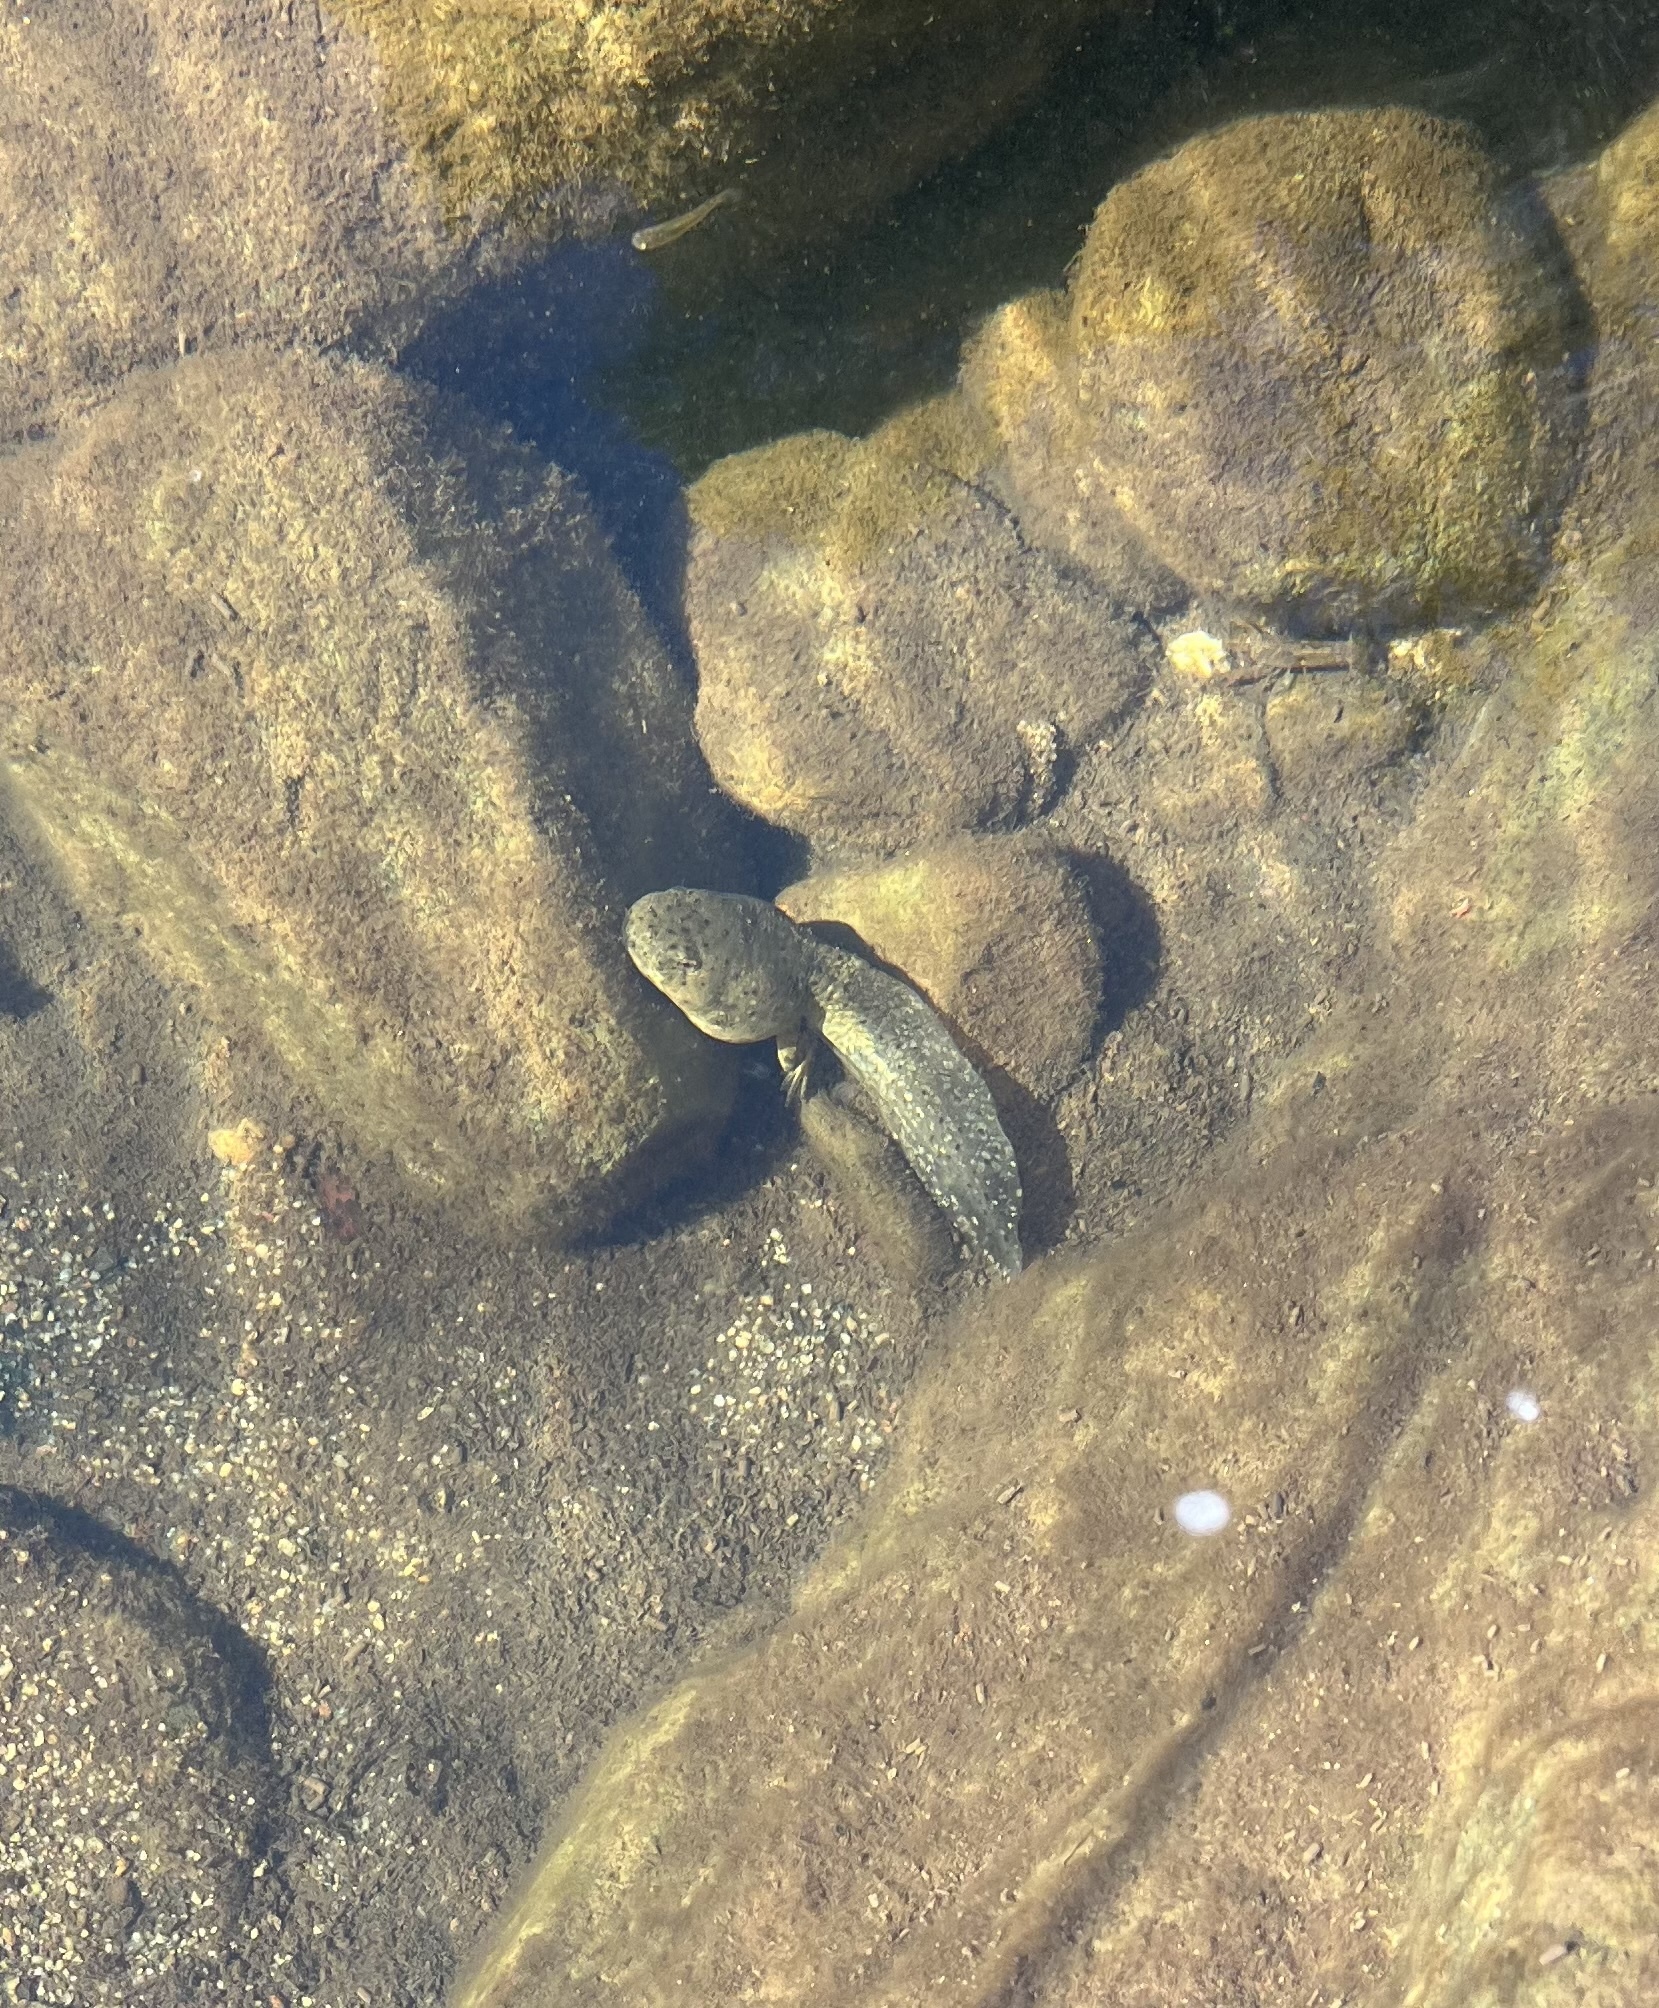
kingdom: Animalia
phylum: Chordata
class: Amphibia
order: Anura
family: Ranidae
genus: Lithobates
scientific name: Lithobates catesbeianus
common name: American bullfrog
